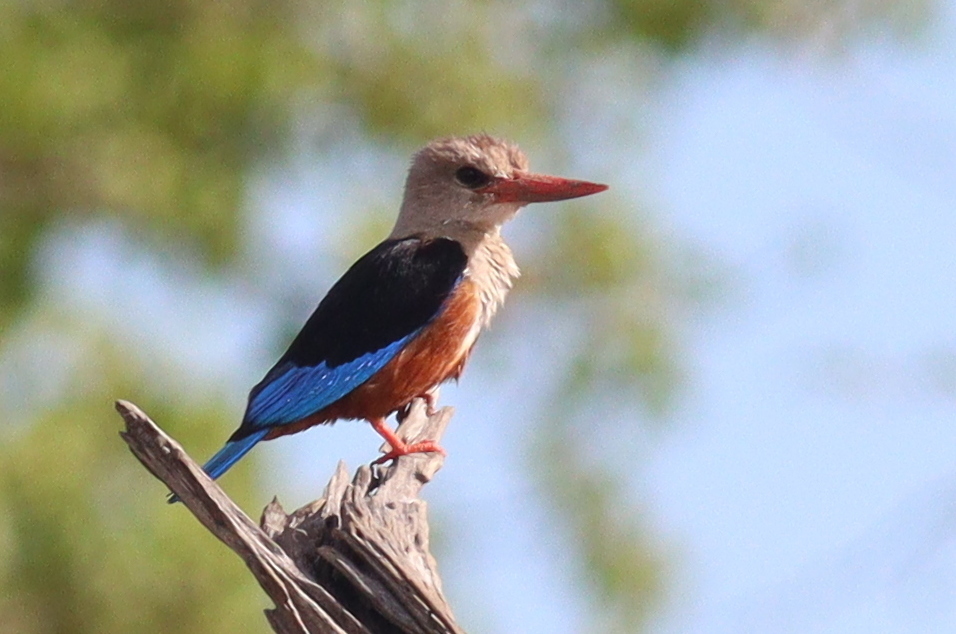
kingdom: Animalia
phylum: Chordata
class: Aves
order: Coraciiformes
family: Alcedinidae
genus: Halcyon
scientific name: Halcyon leucocephala
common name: Grey-headed kingfisher
